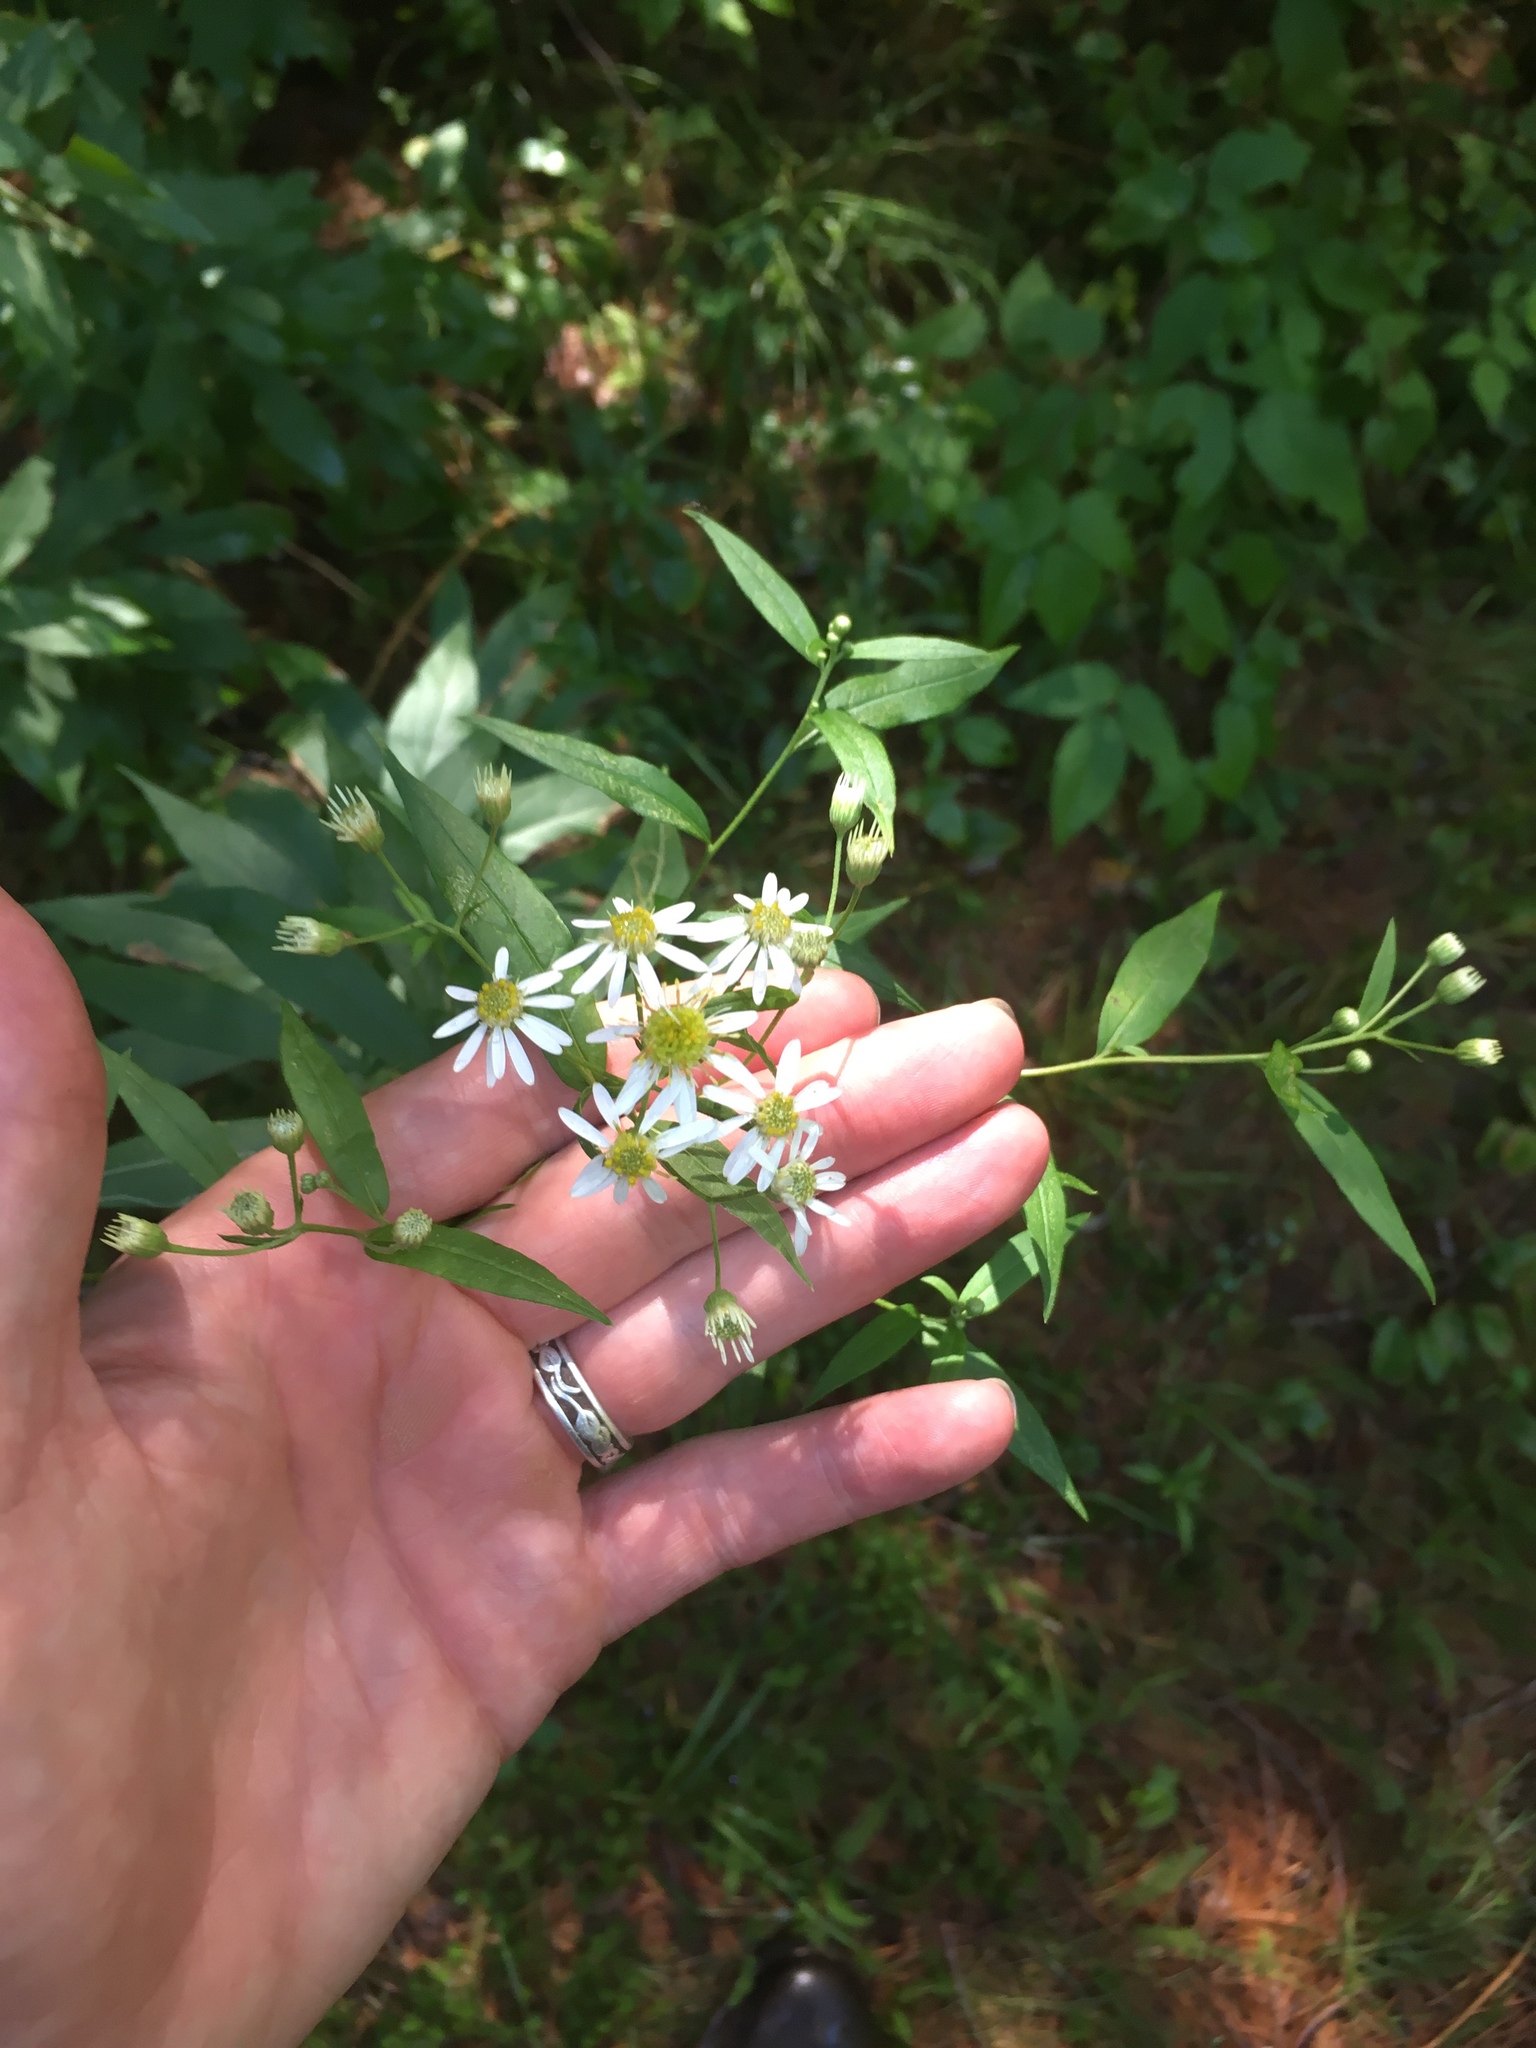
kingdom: Plantae
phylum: Tracheophyta
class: Magnoliopsida
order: Asterales
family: Asteraceae
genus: Doellingeria
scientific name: Doellingeria umbellata
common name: Flat-top white aster
